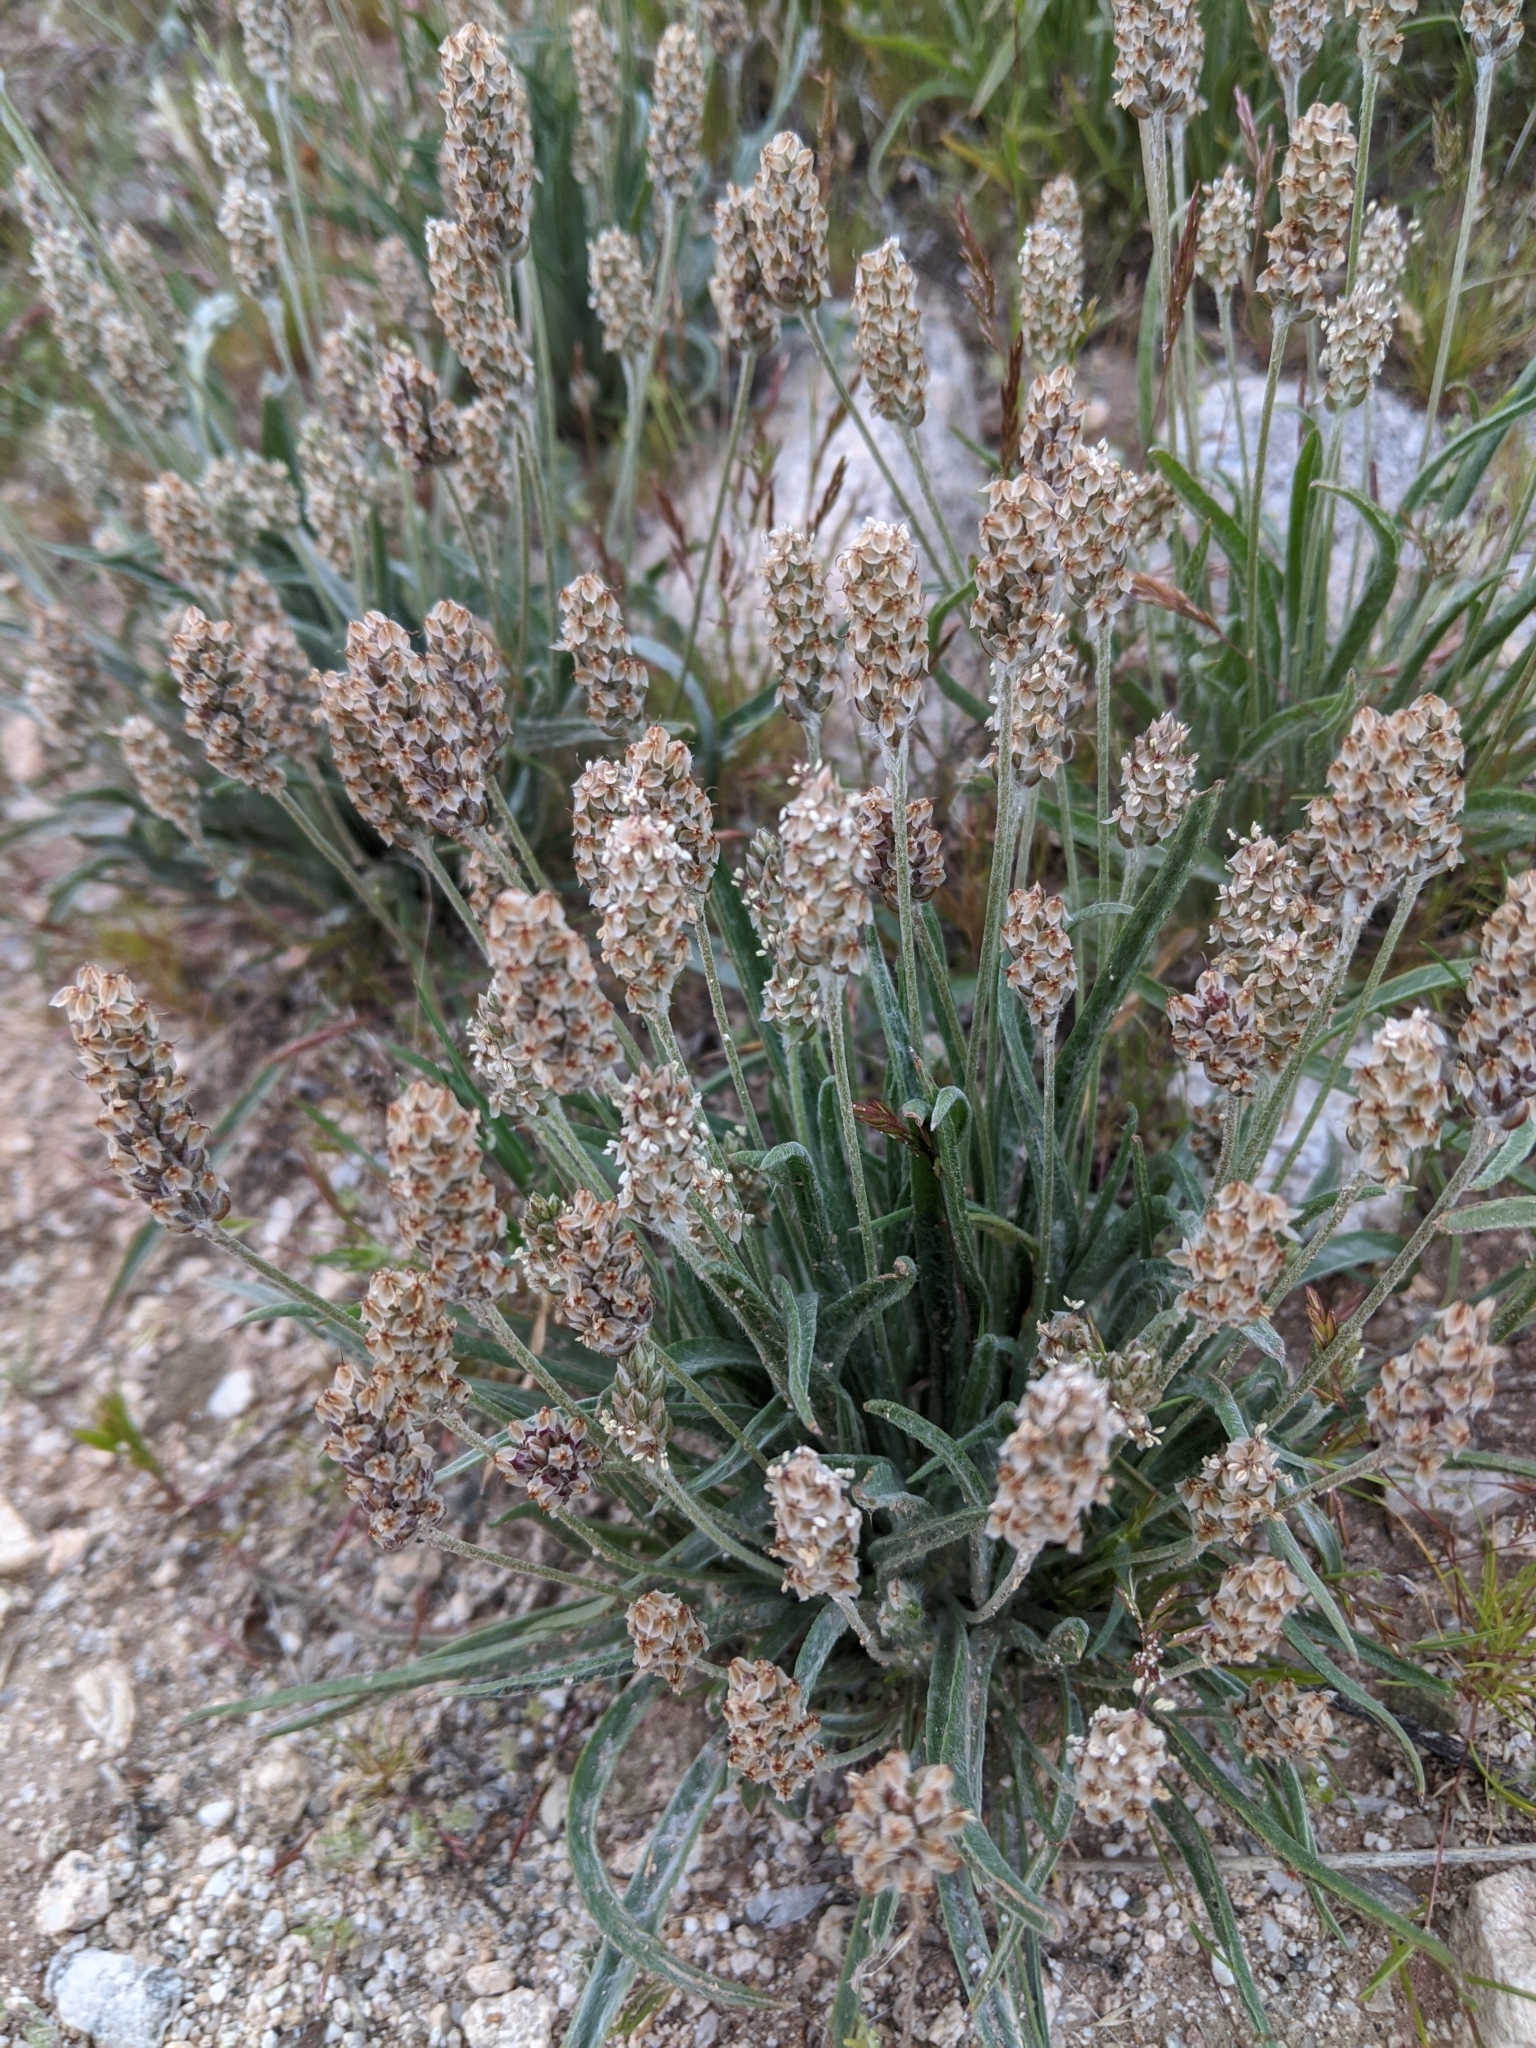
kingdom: Plantae
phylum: Tracheophyta
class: Magnoliopsida
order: Lamiales
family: Plantaginaceae
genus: Plantago
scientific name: Plantago ovata
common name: Blond plantain
